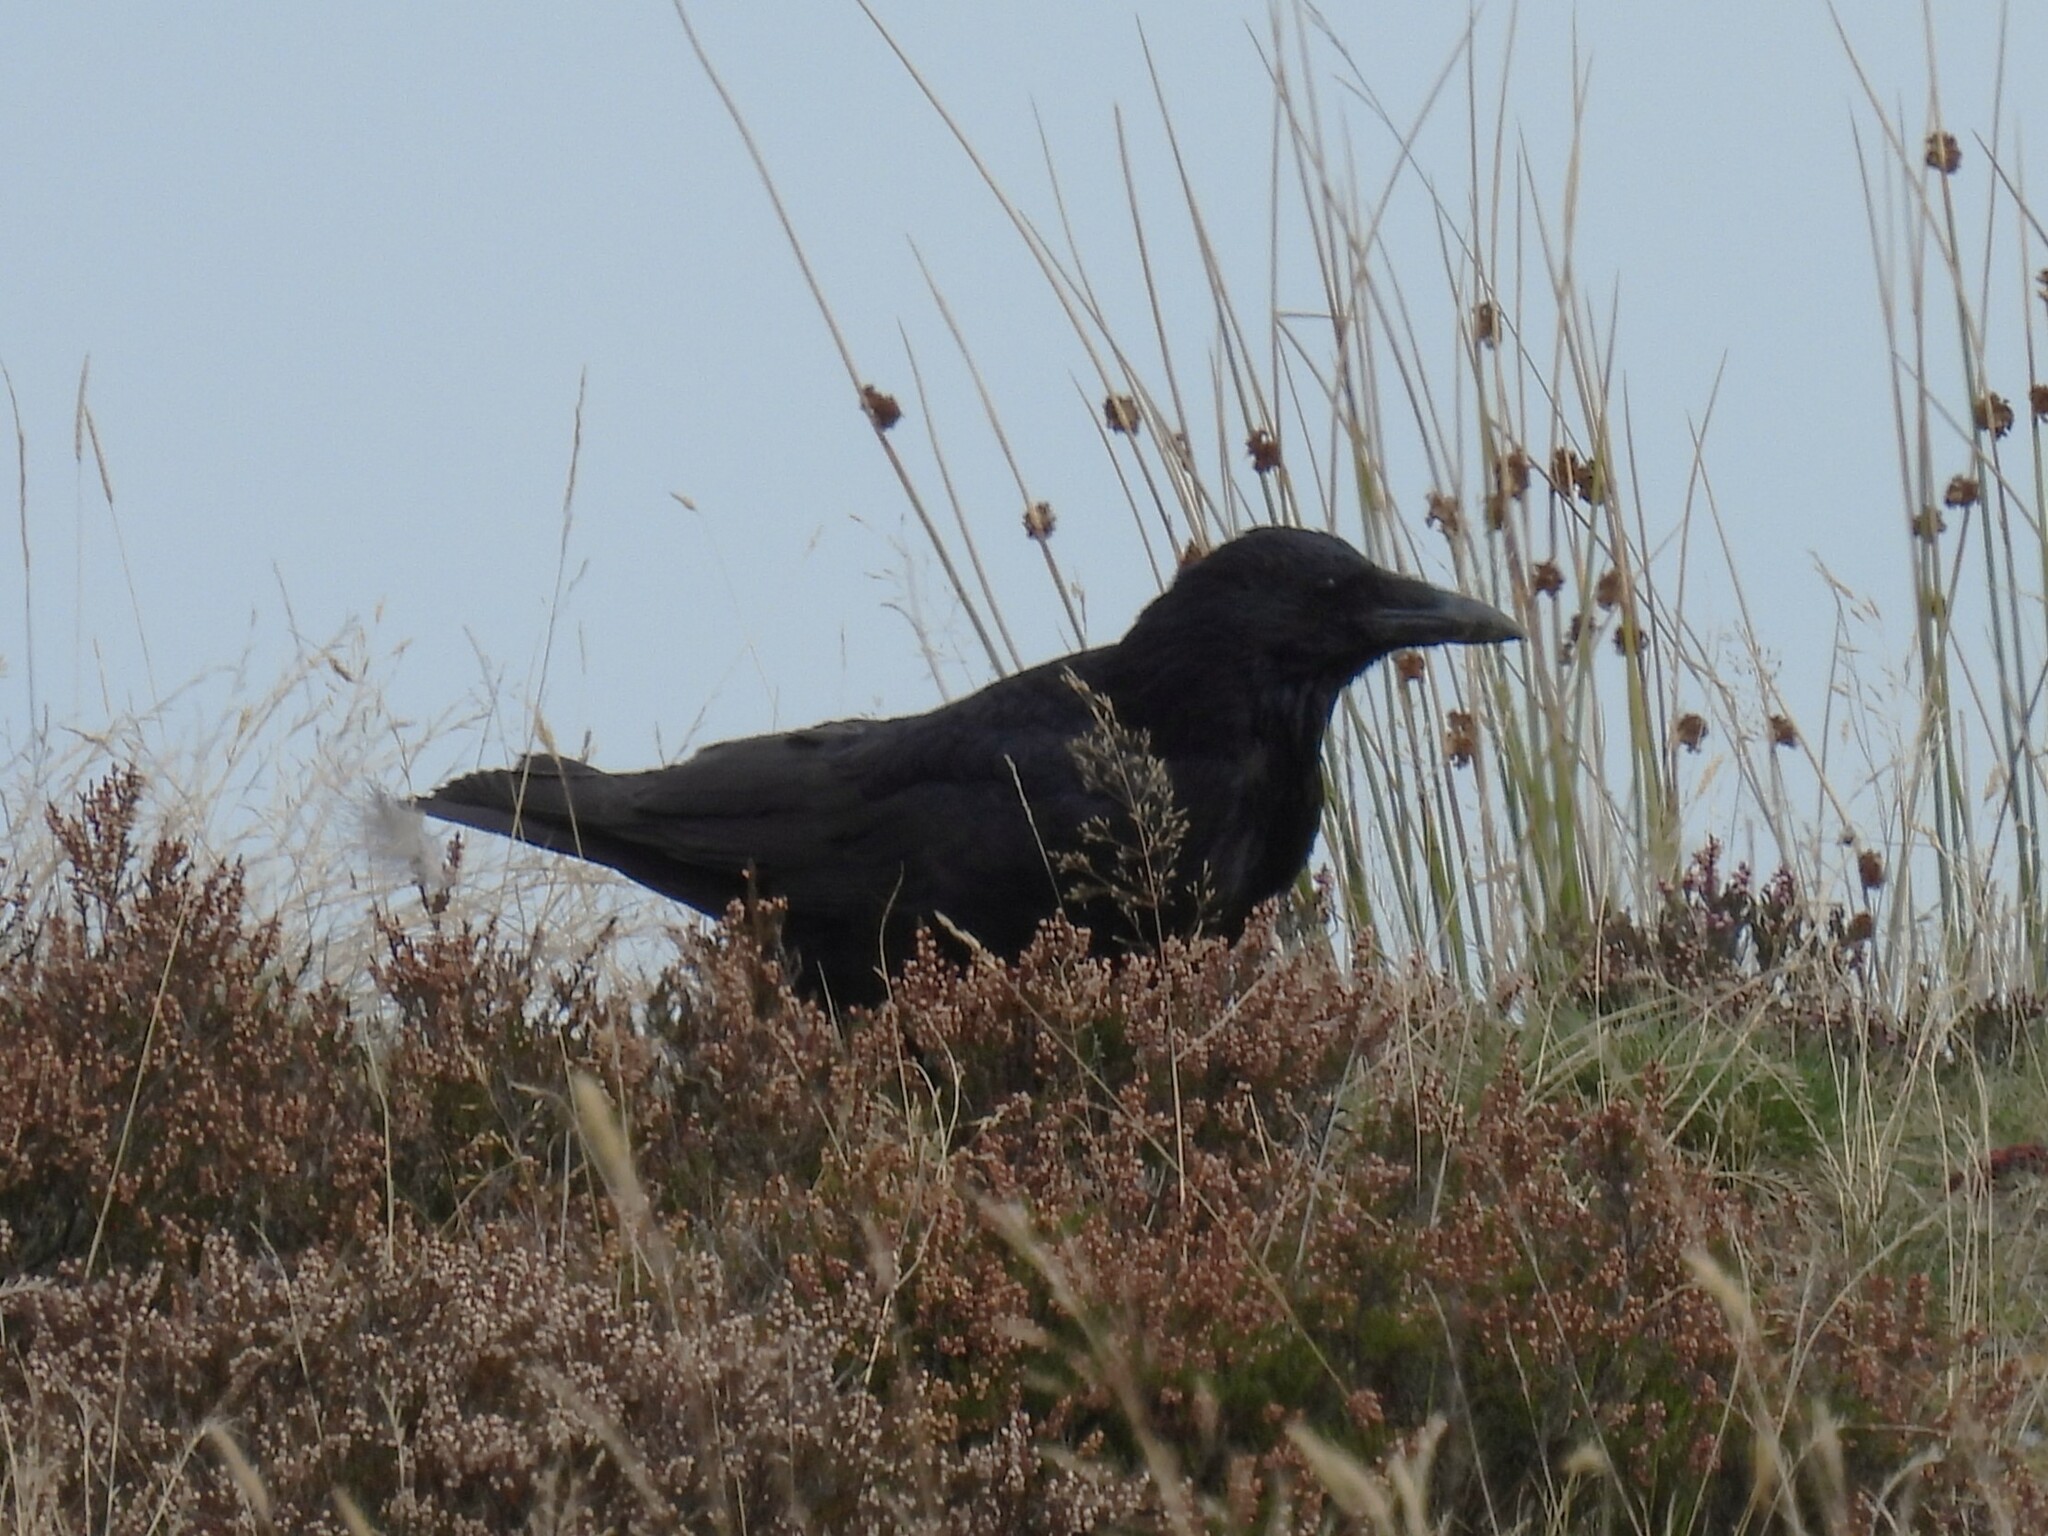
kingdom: Animalia
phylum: Chordata
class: Aves
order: Passeriformes
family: Corvidae
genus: Corvus
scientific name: Corvus corone
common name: Carrion crow
